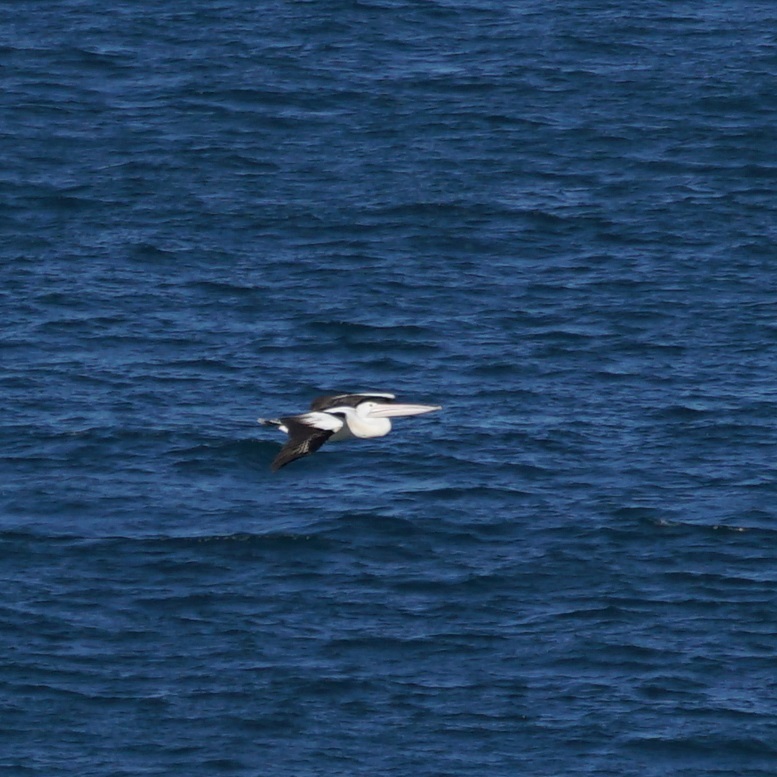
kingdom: Animalia
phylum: Chordata
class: Aves
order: Pelecaniformes
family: Pelecanidae
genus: Pelecanus
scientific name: Pelecanus conspicillatus
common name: Australian pelican
